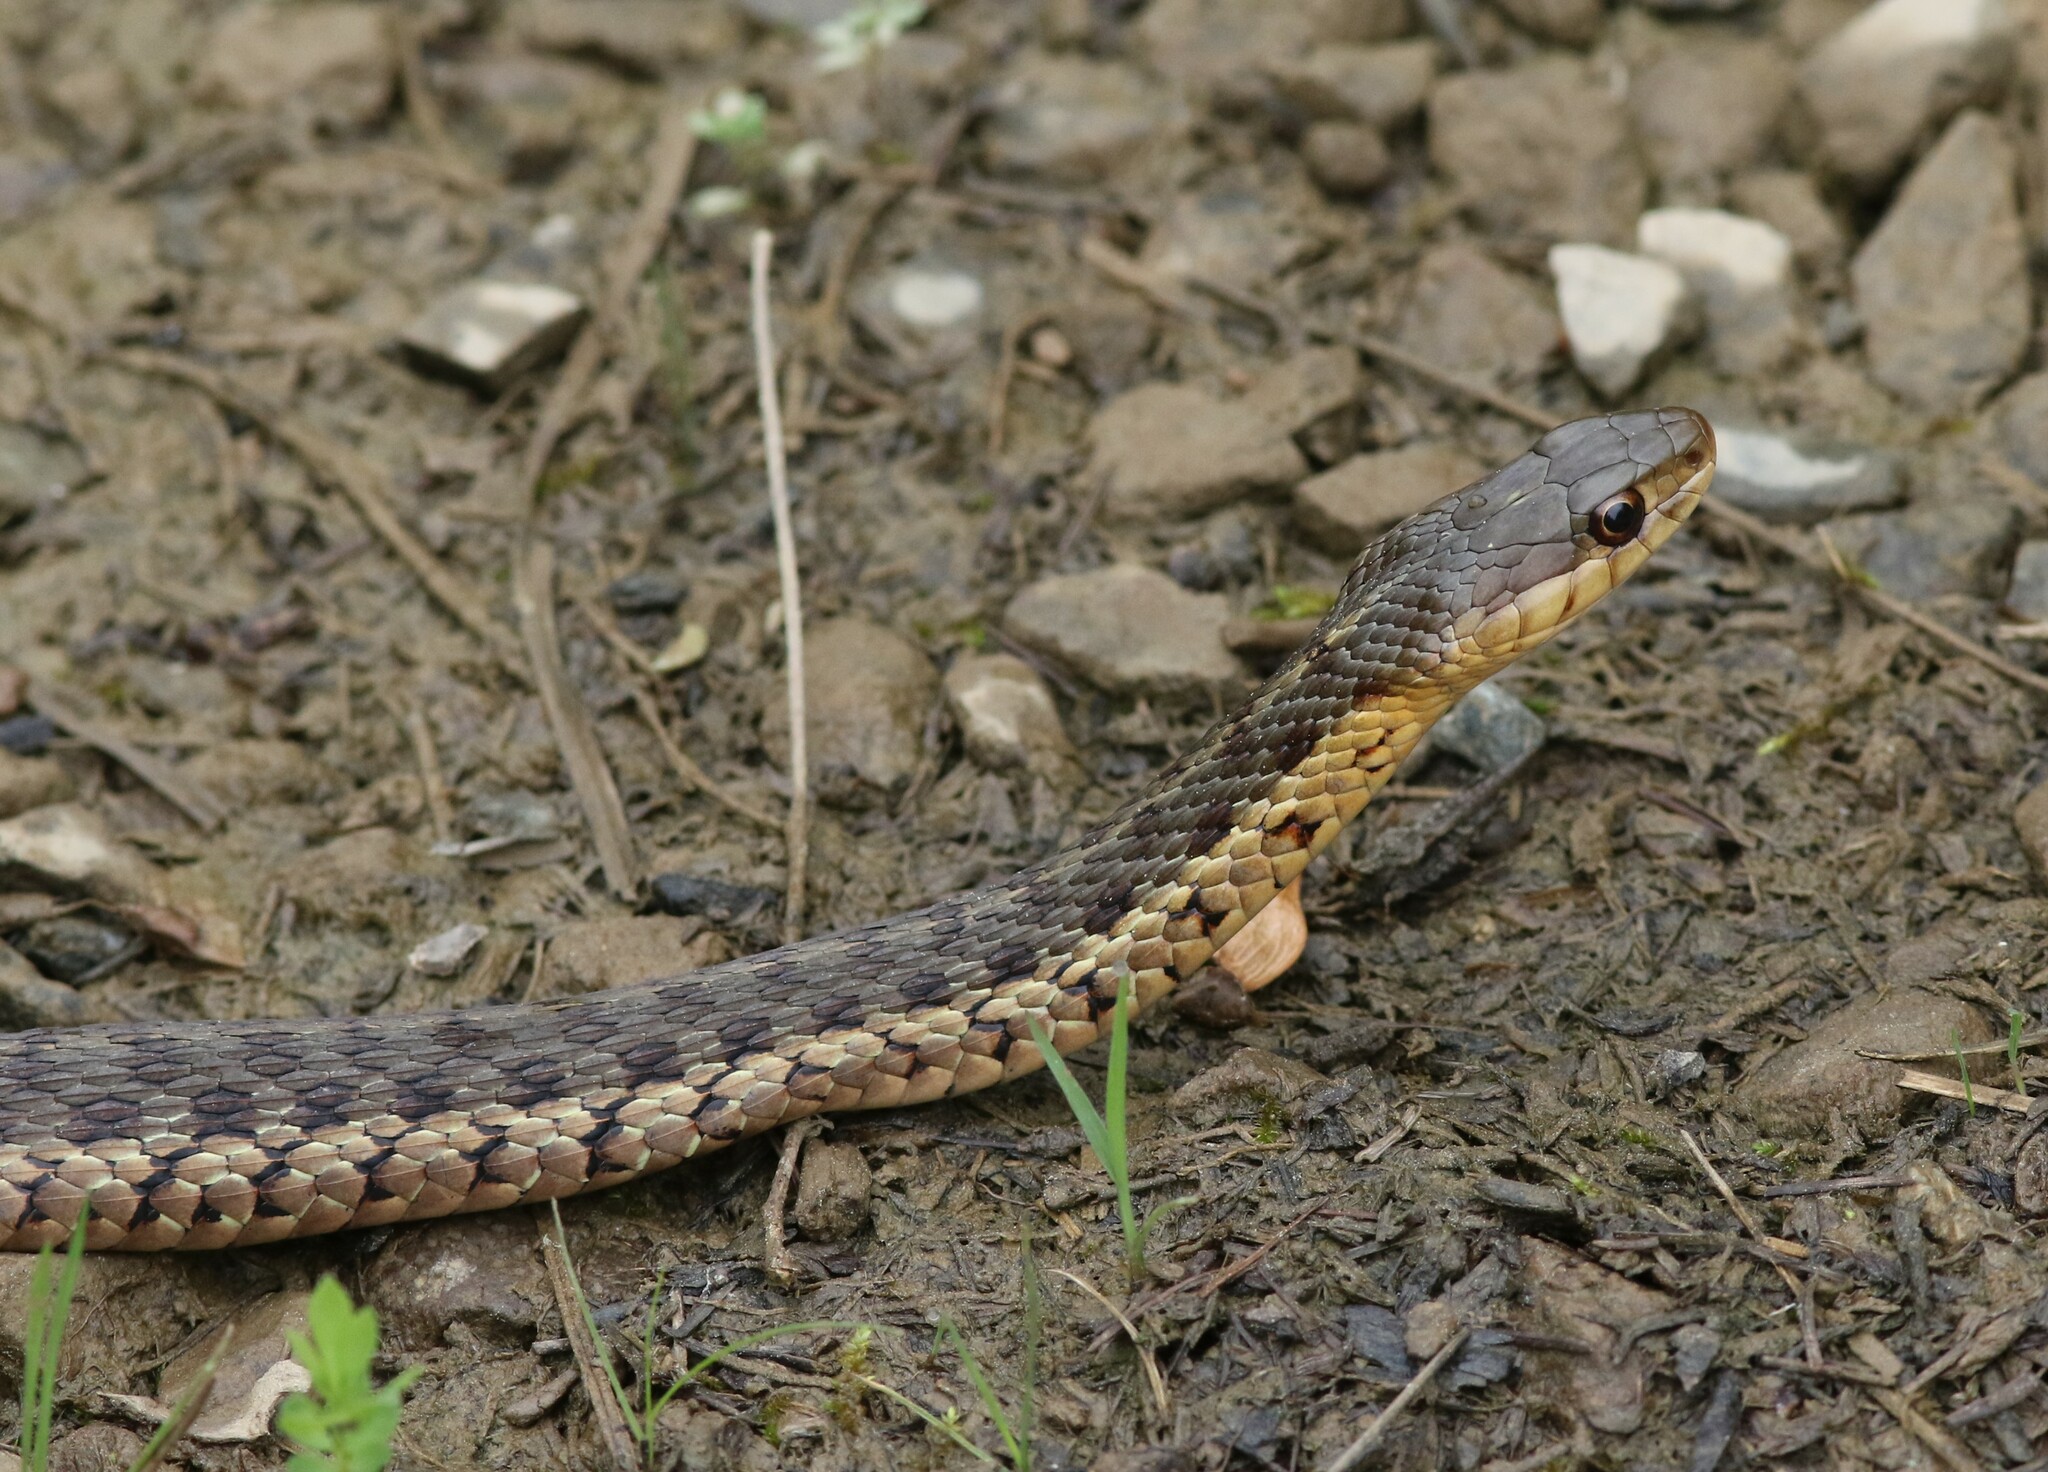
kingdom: Animalia
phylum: Chordata
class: Squamata
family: Colubridae
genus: Thamnophis
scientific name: Thamnophis sirtalis
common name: Common garter snake
